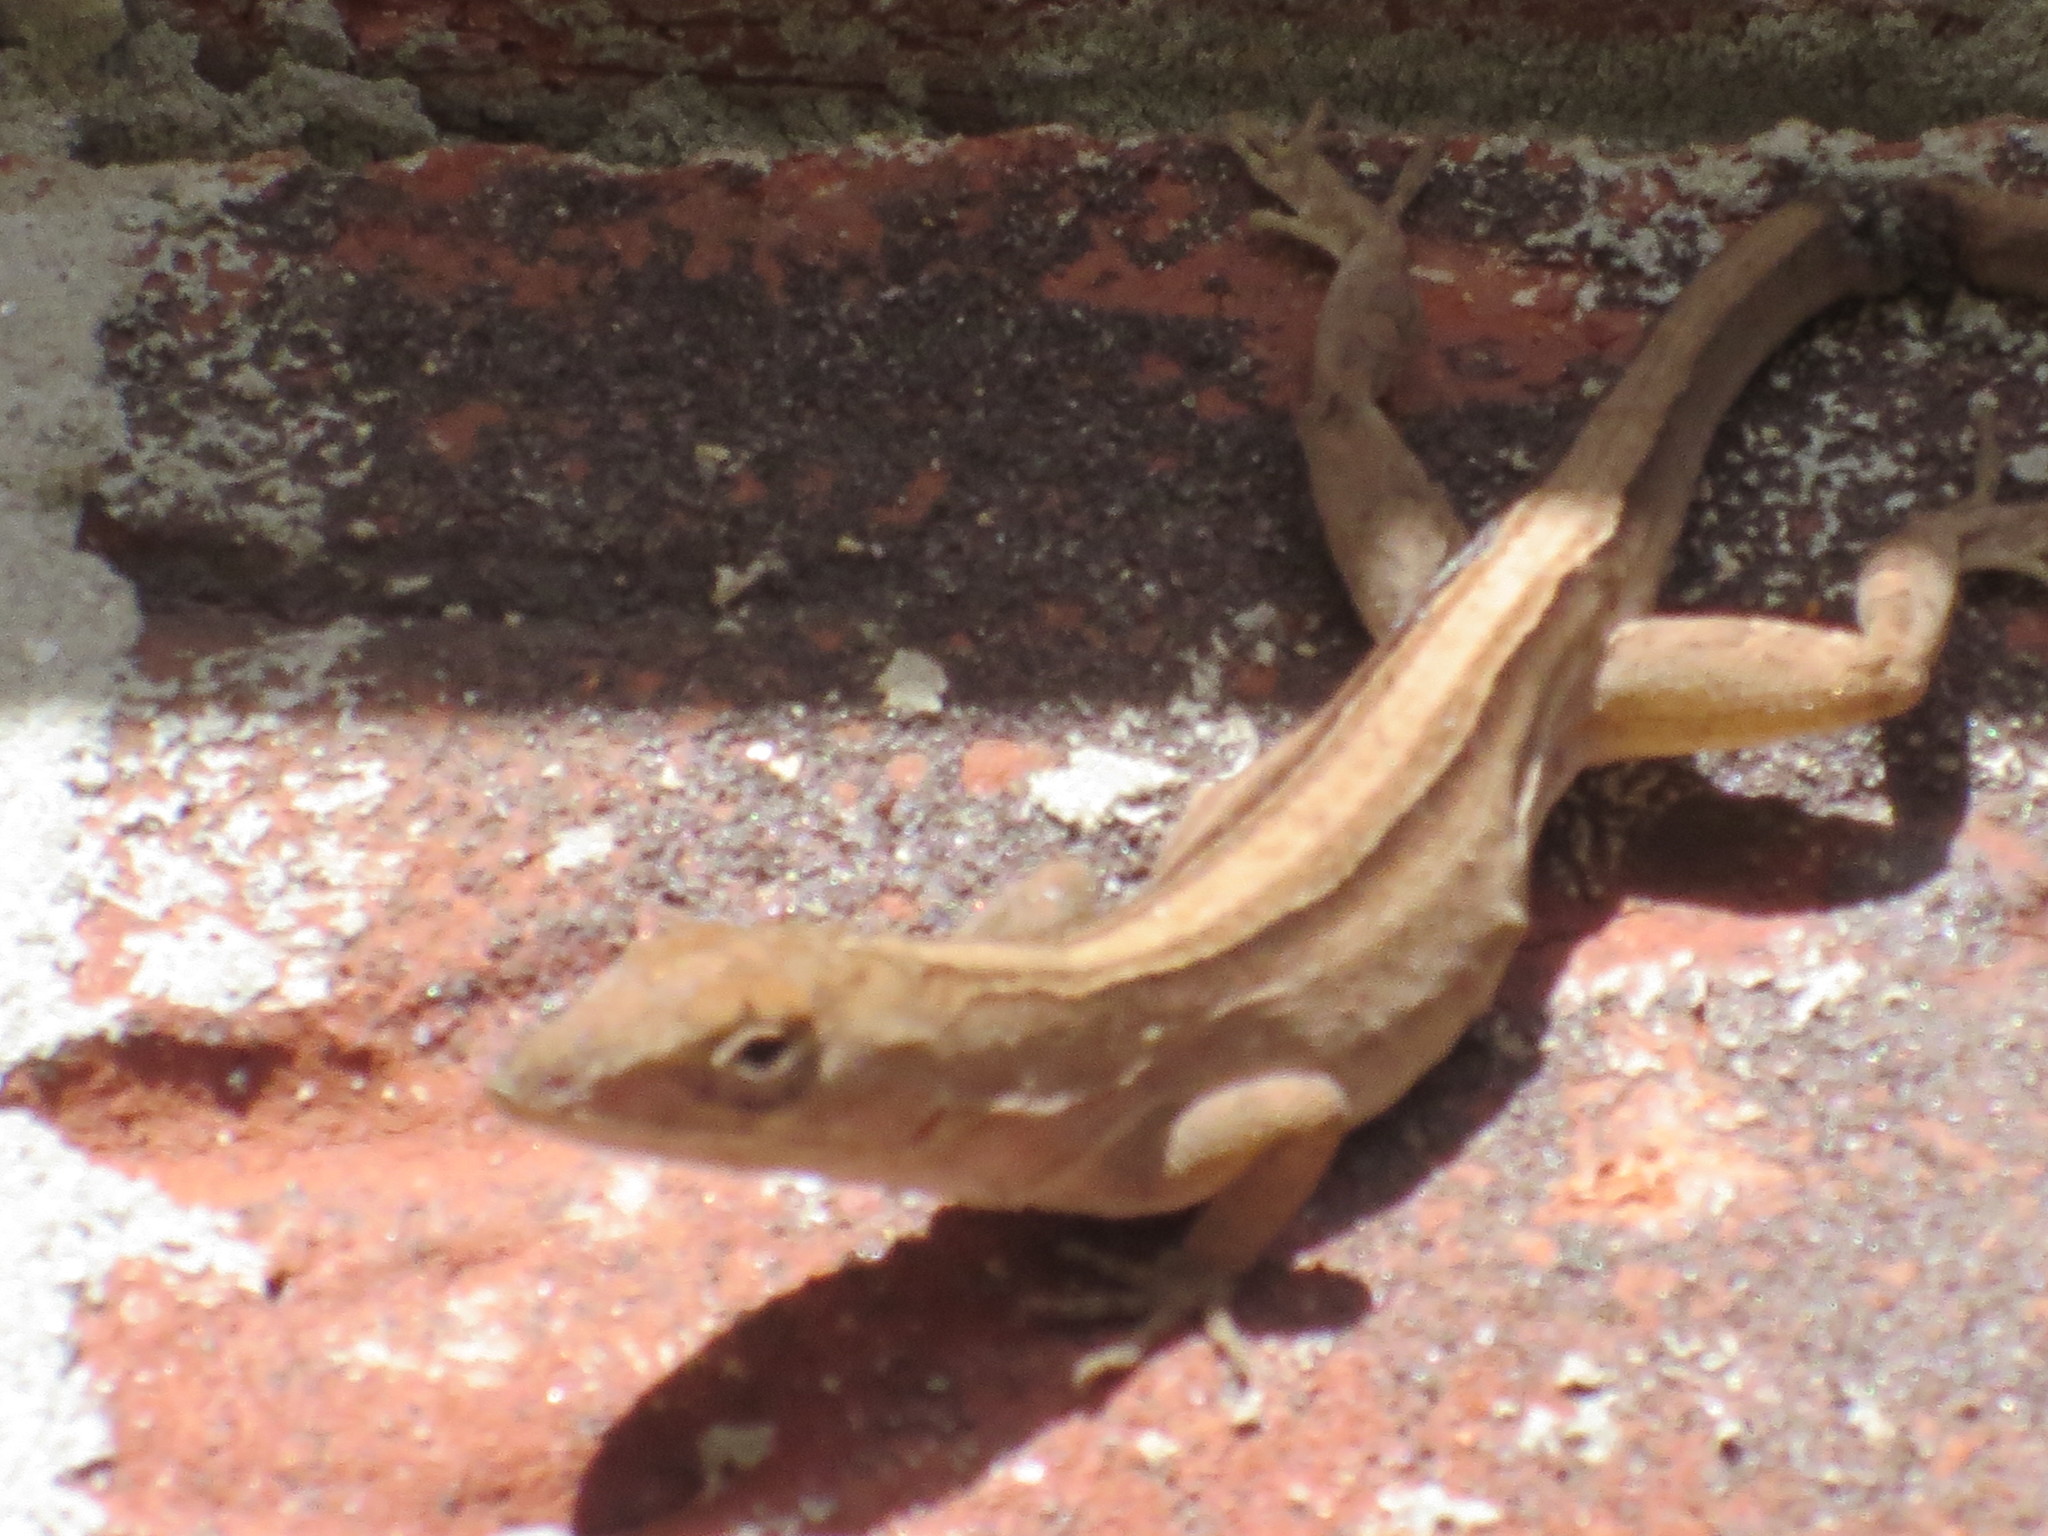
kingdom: Animalia
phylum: Chordata
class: Squamata
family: Dactyloidae
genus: Anolis
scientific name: Anolis sagrei
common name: Brown anole
